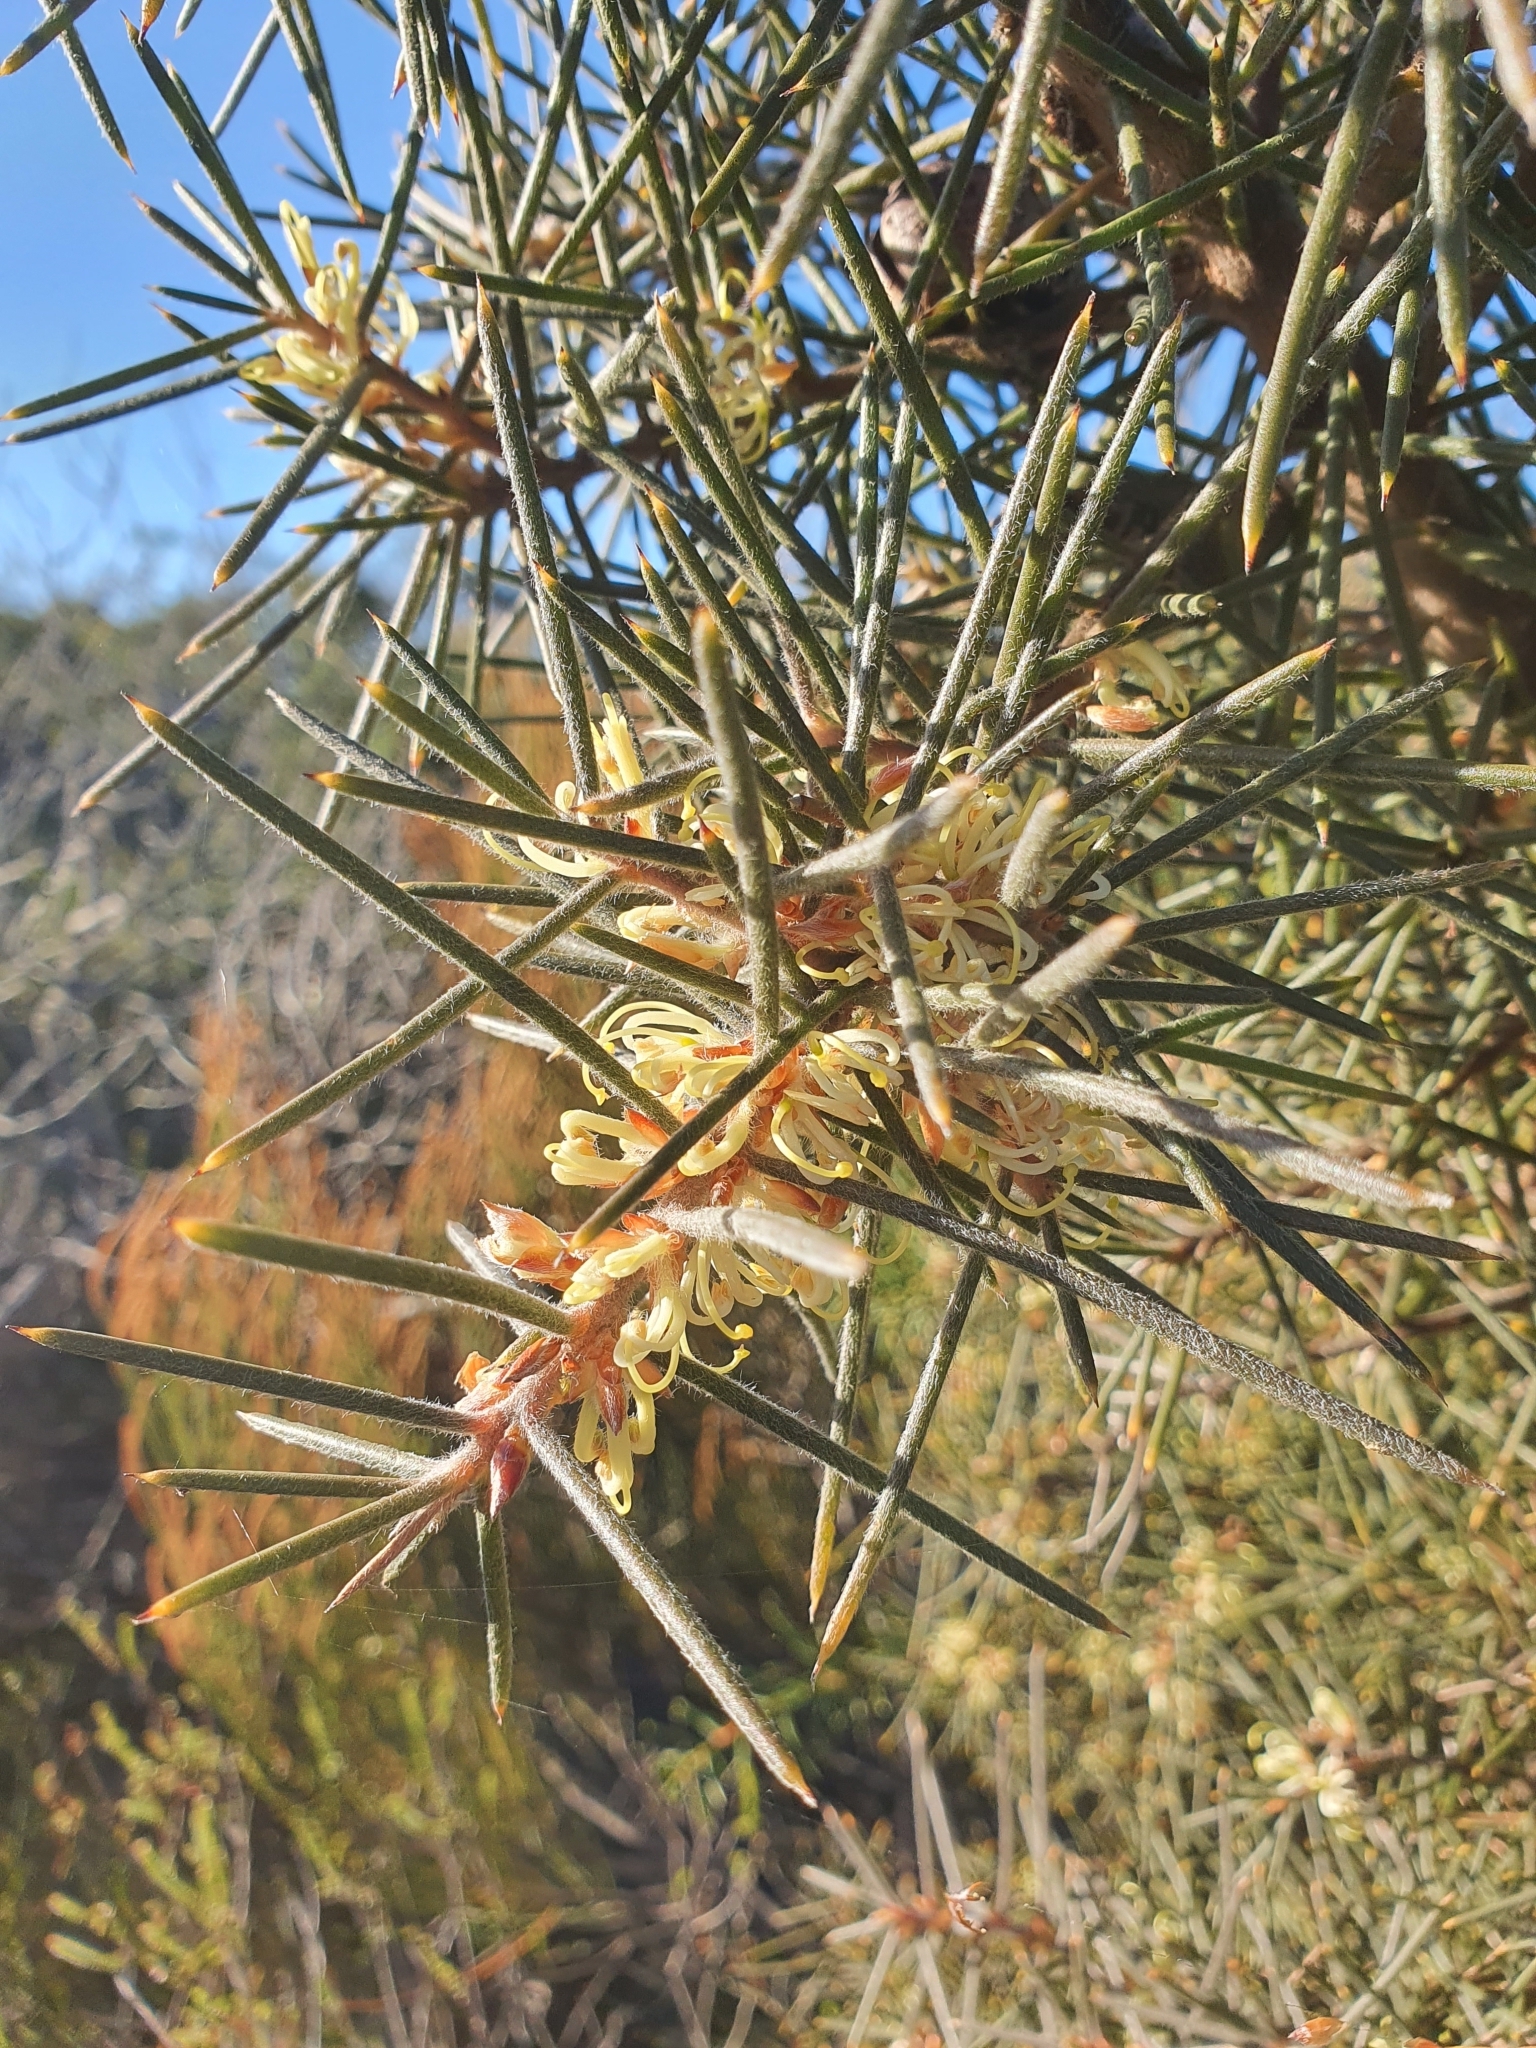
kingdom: Plantae
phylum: Tracheophyta
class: Magnoliopsida
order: Proteales
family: Proteaceae
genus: Hakea
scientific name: Hakea gibbosa
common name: Rock hakea
